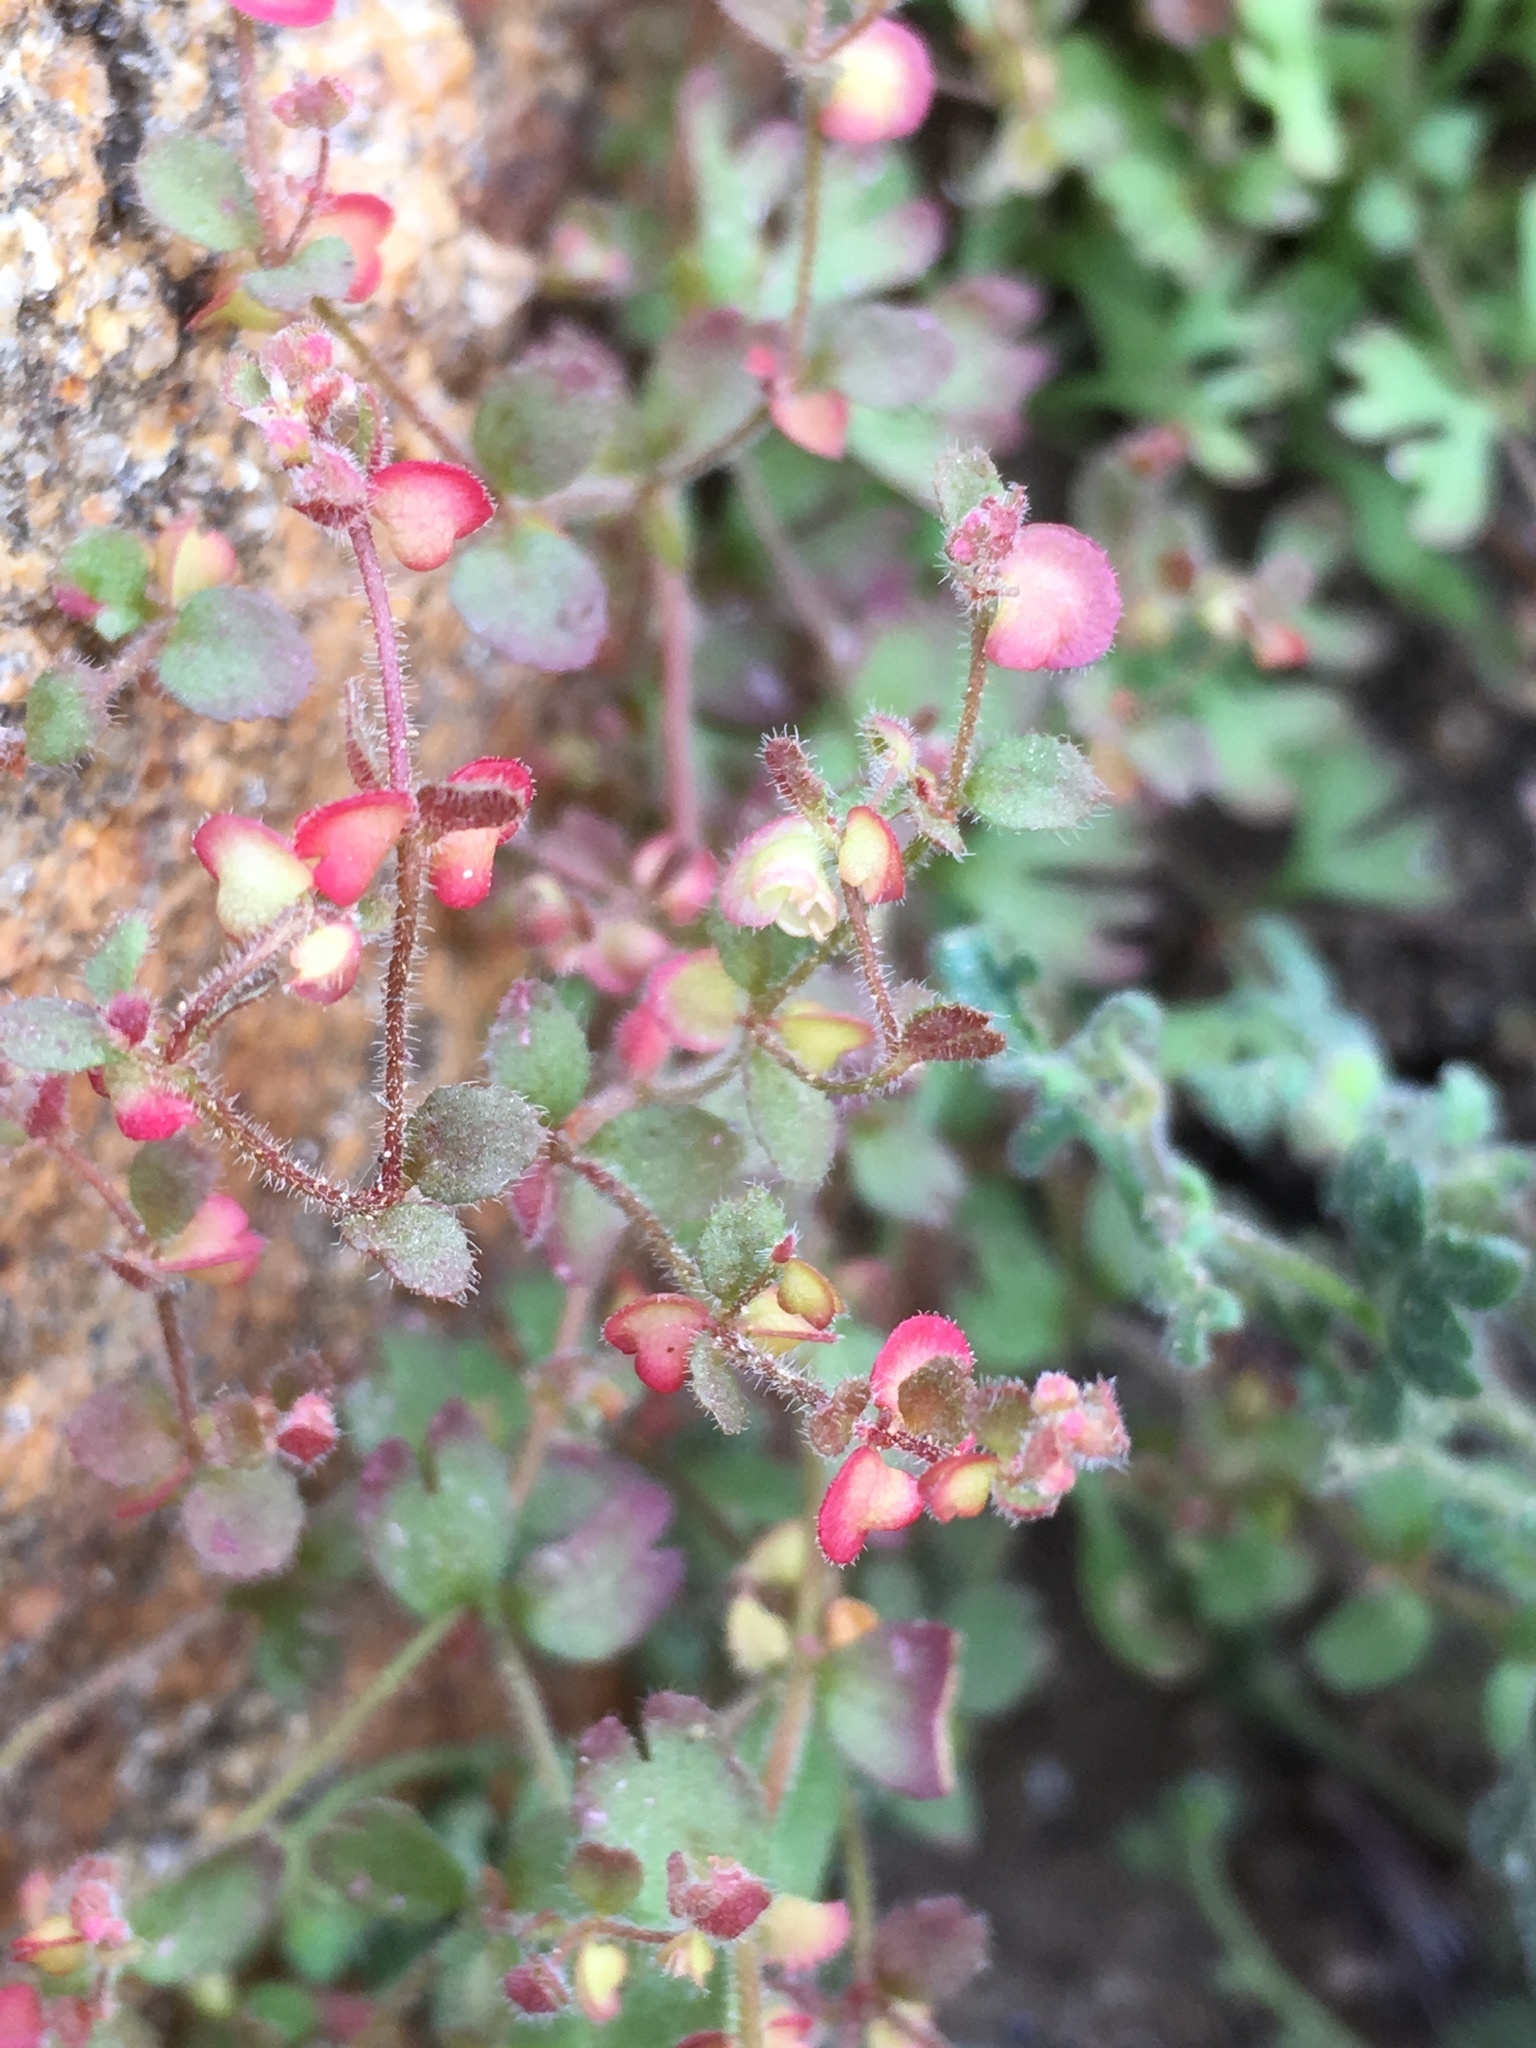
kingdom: Plantae
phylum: Tracheophyta
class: Magnoliopsida
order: Caryophyllales
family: Polygonaceae
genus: Pterostegia
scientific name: Pterostegia drymarioides
